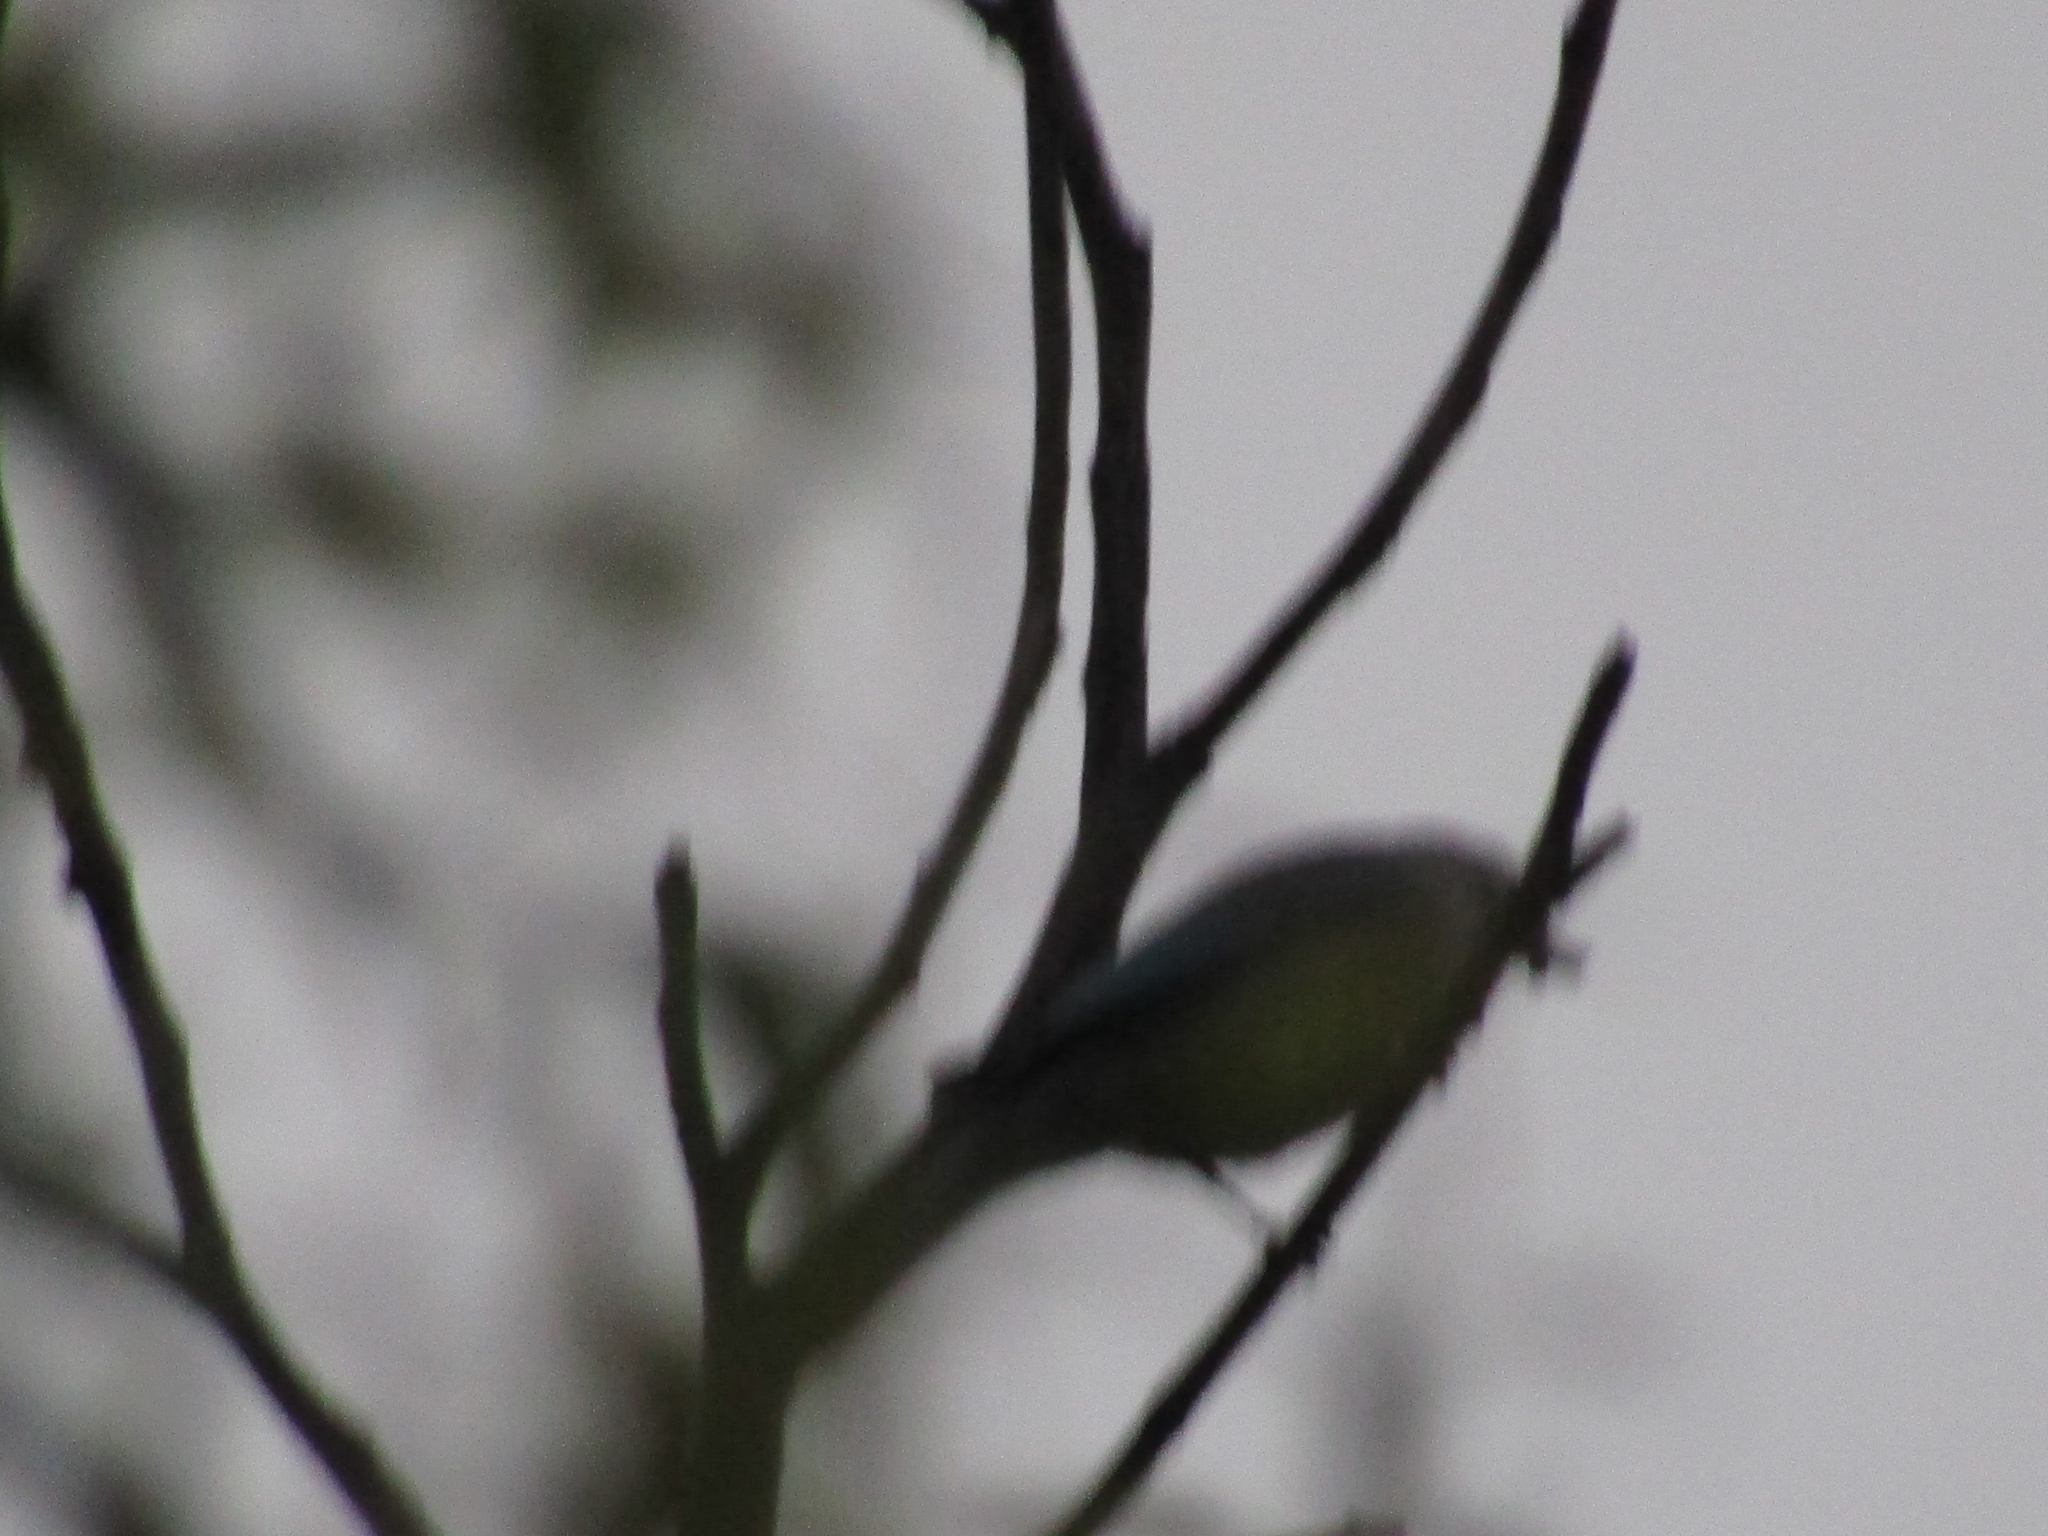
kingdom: Animalia
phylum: Chordata
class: Aves
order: Passeriformes
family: Thraupidae
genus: Thraupis
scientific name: Thraupis sayaca
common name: Sayaca tanager
